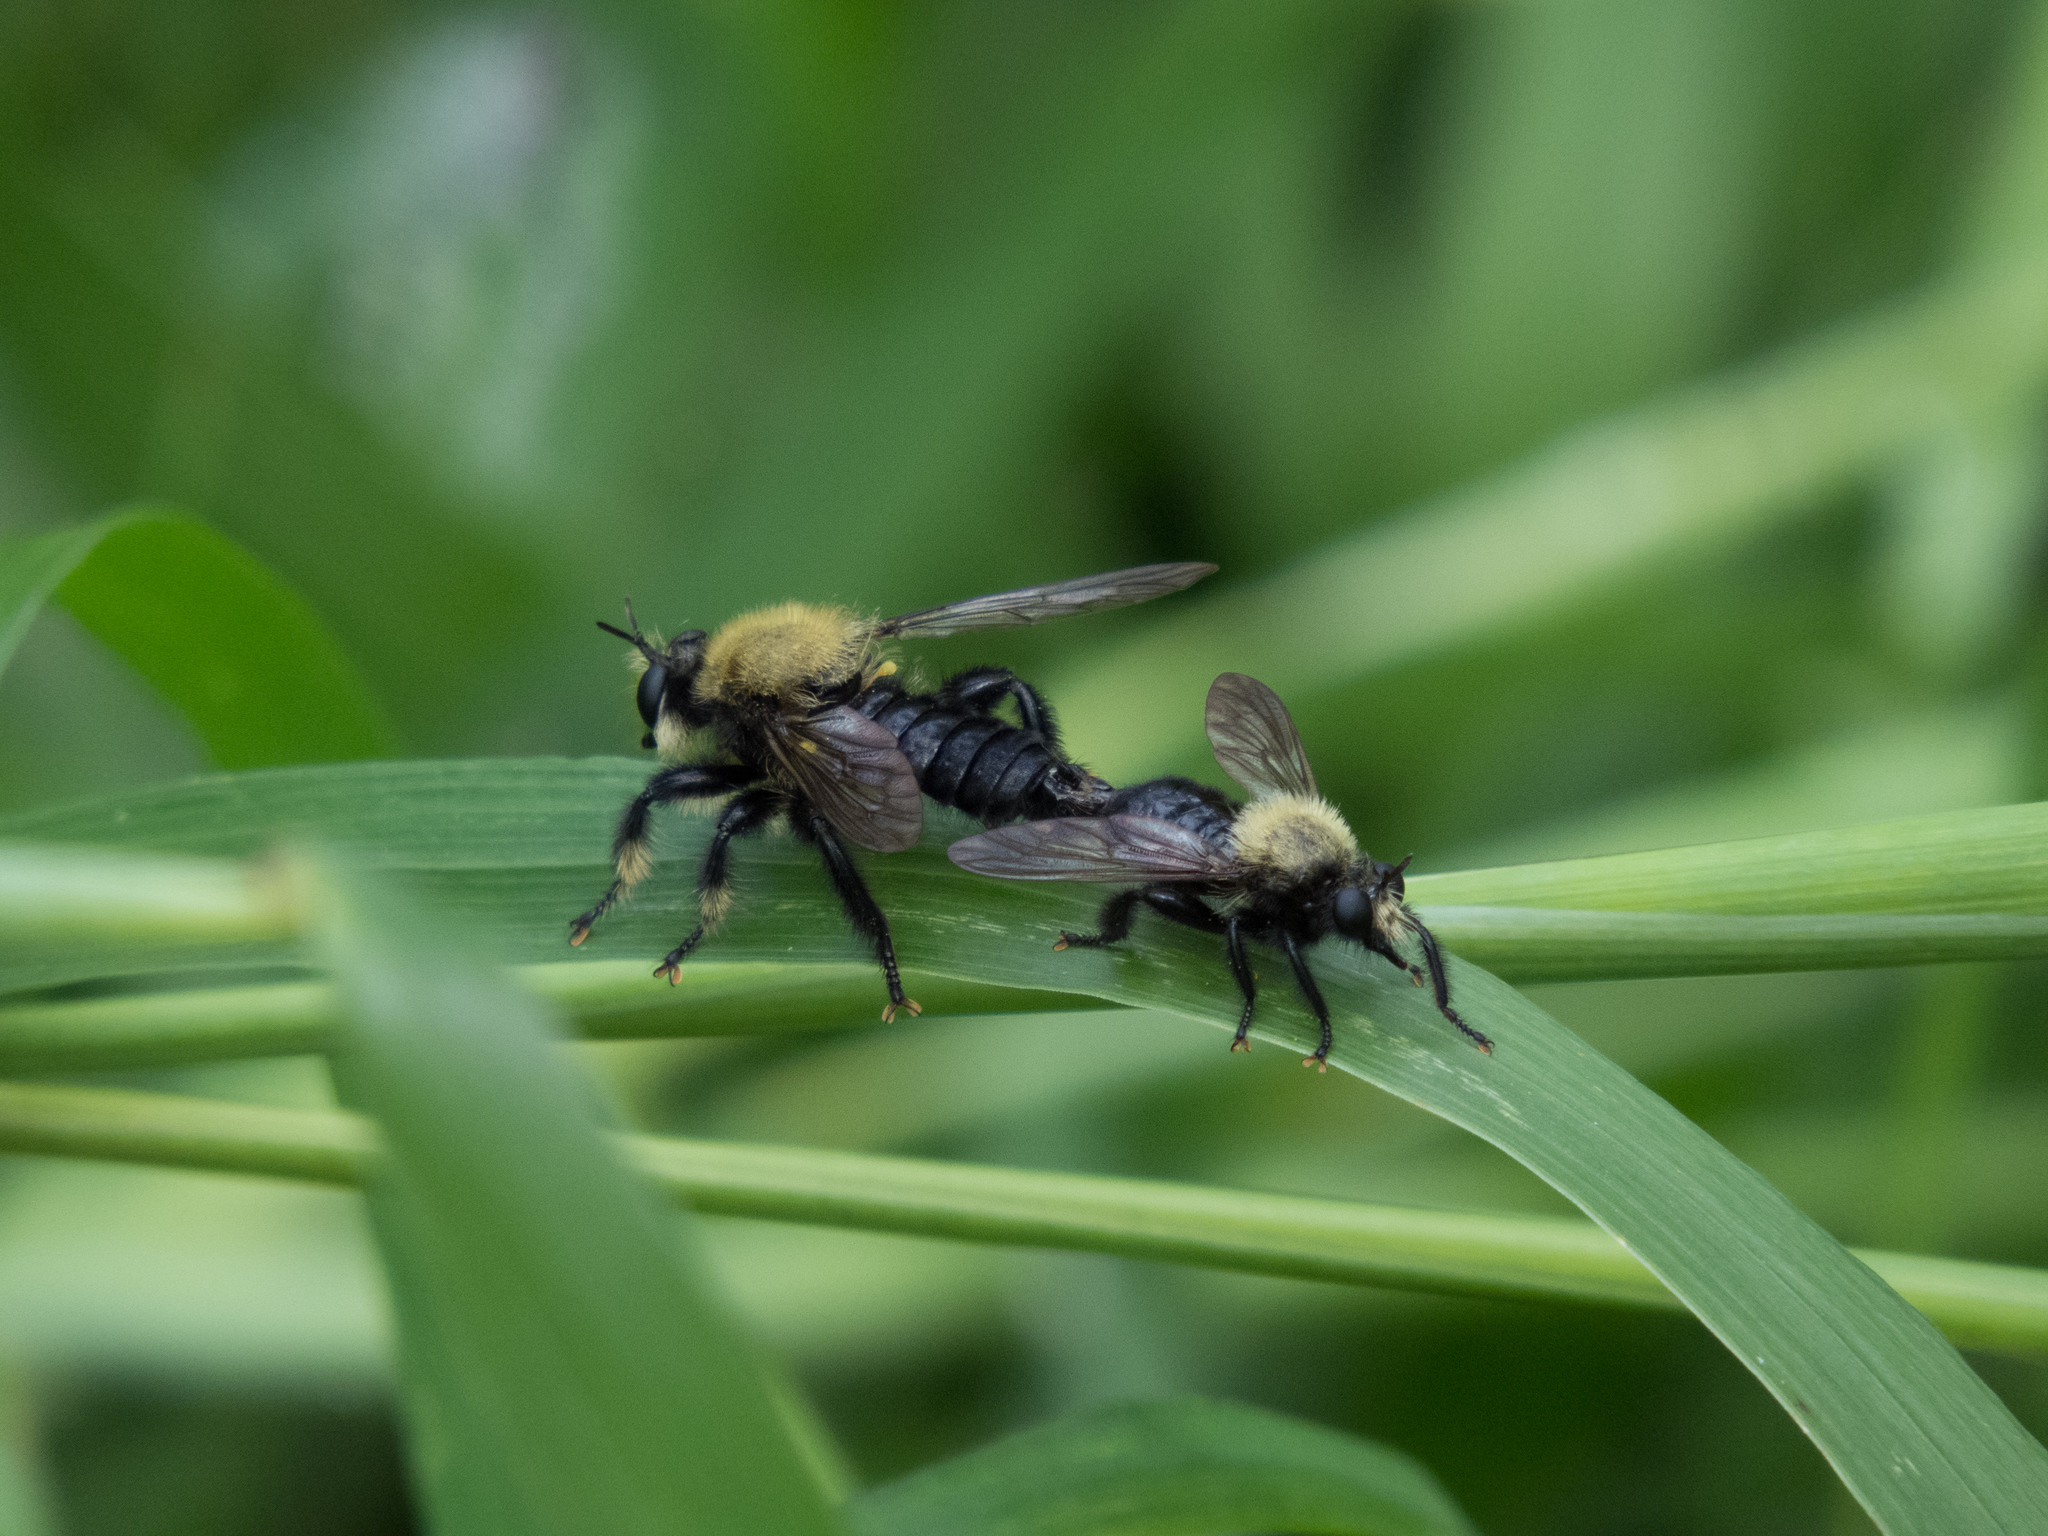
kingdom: Animalia
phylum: Arthropoda
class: Insecta
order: Diptera
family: Asilidae
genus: Laphria
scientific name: Laphria flavicollis
